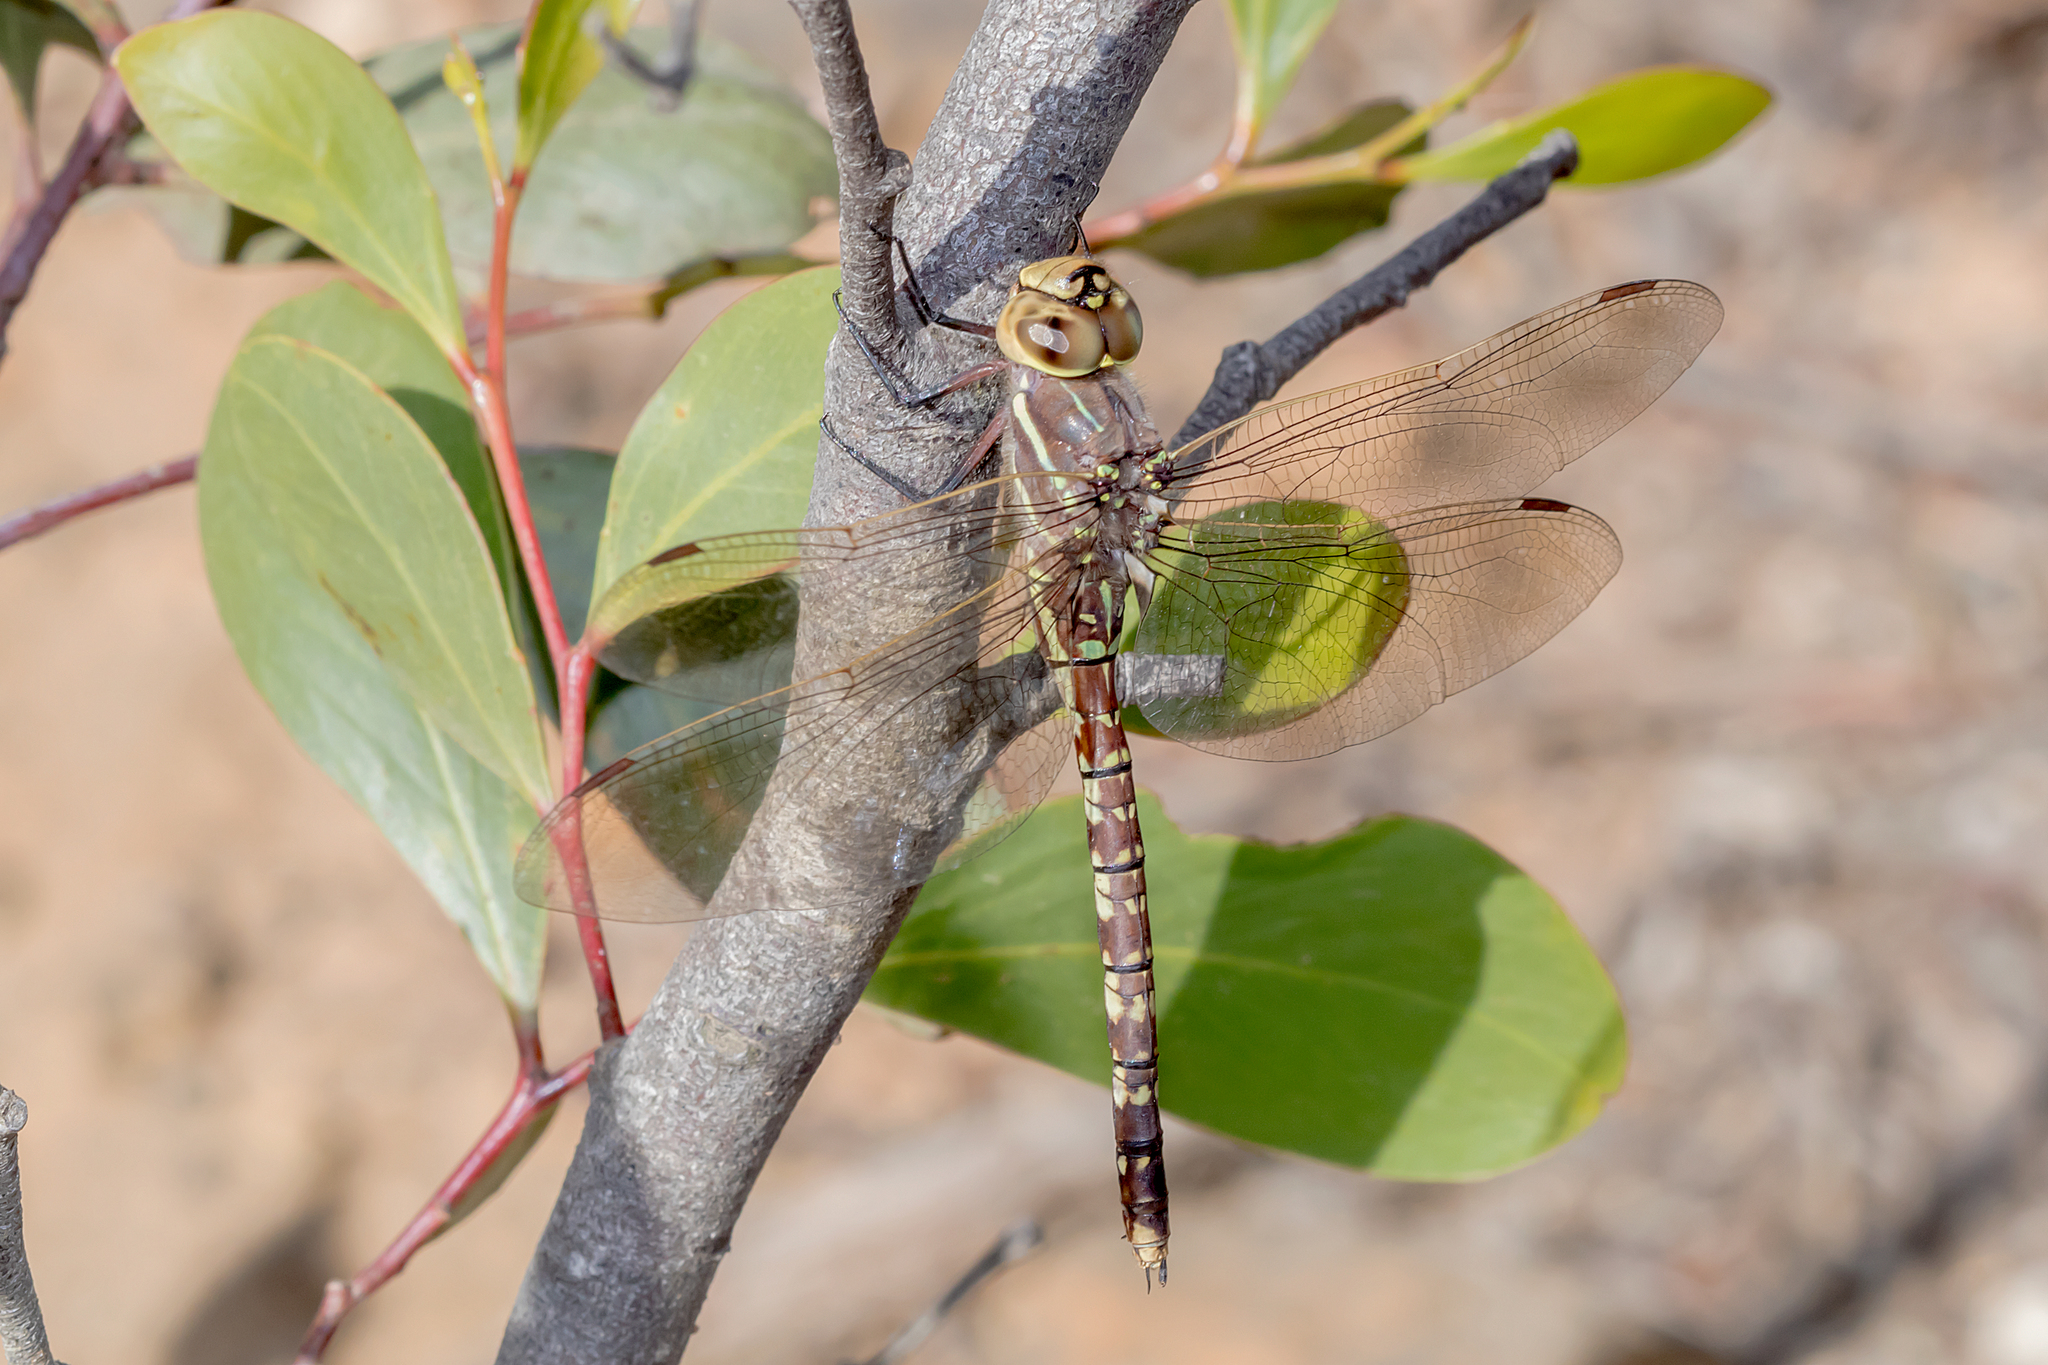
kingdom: Animalia
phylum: Arthropoda
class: Insecta
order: Odonata
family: Aeshnidae
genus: Aeshna
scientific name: Aeshna brevistyla
